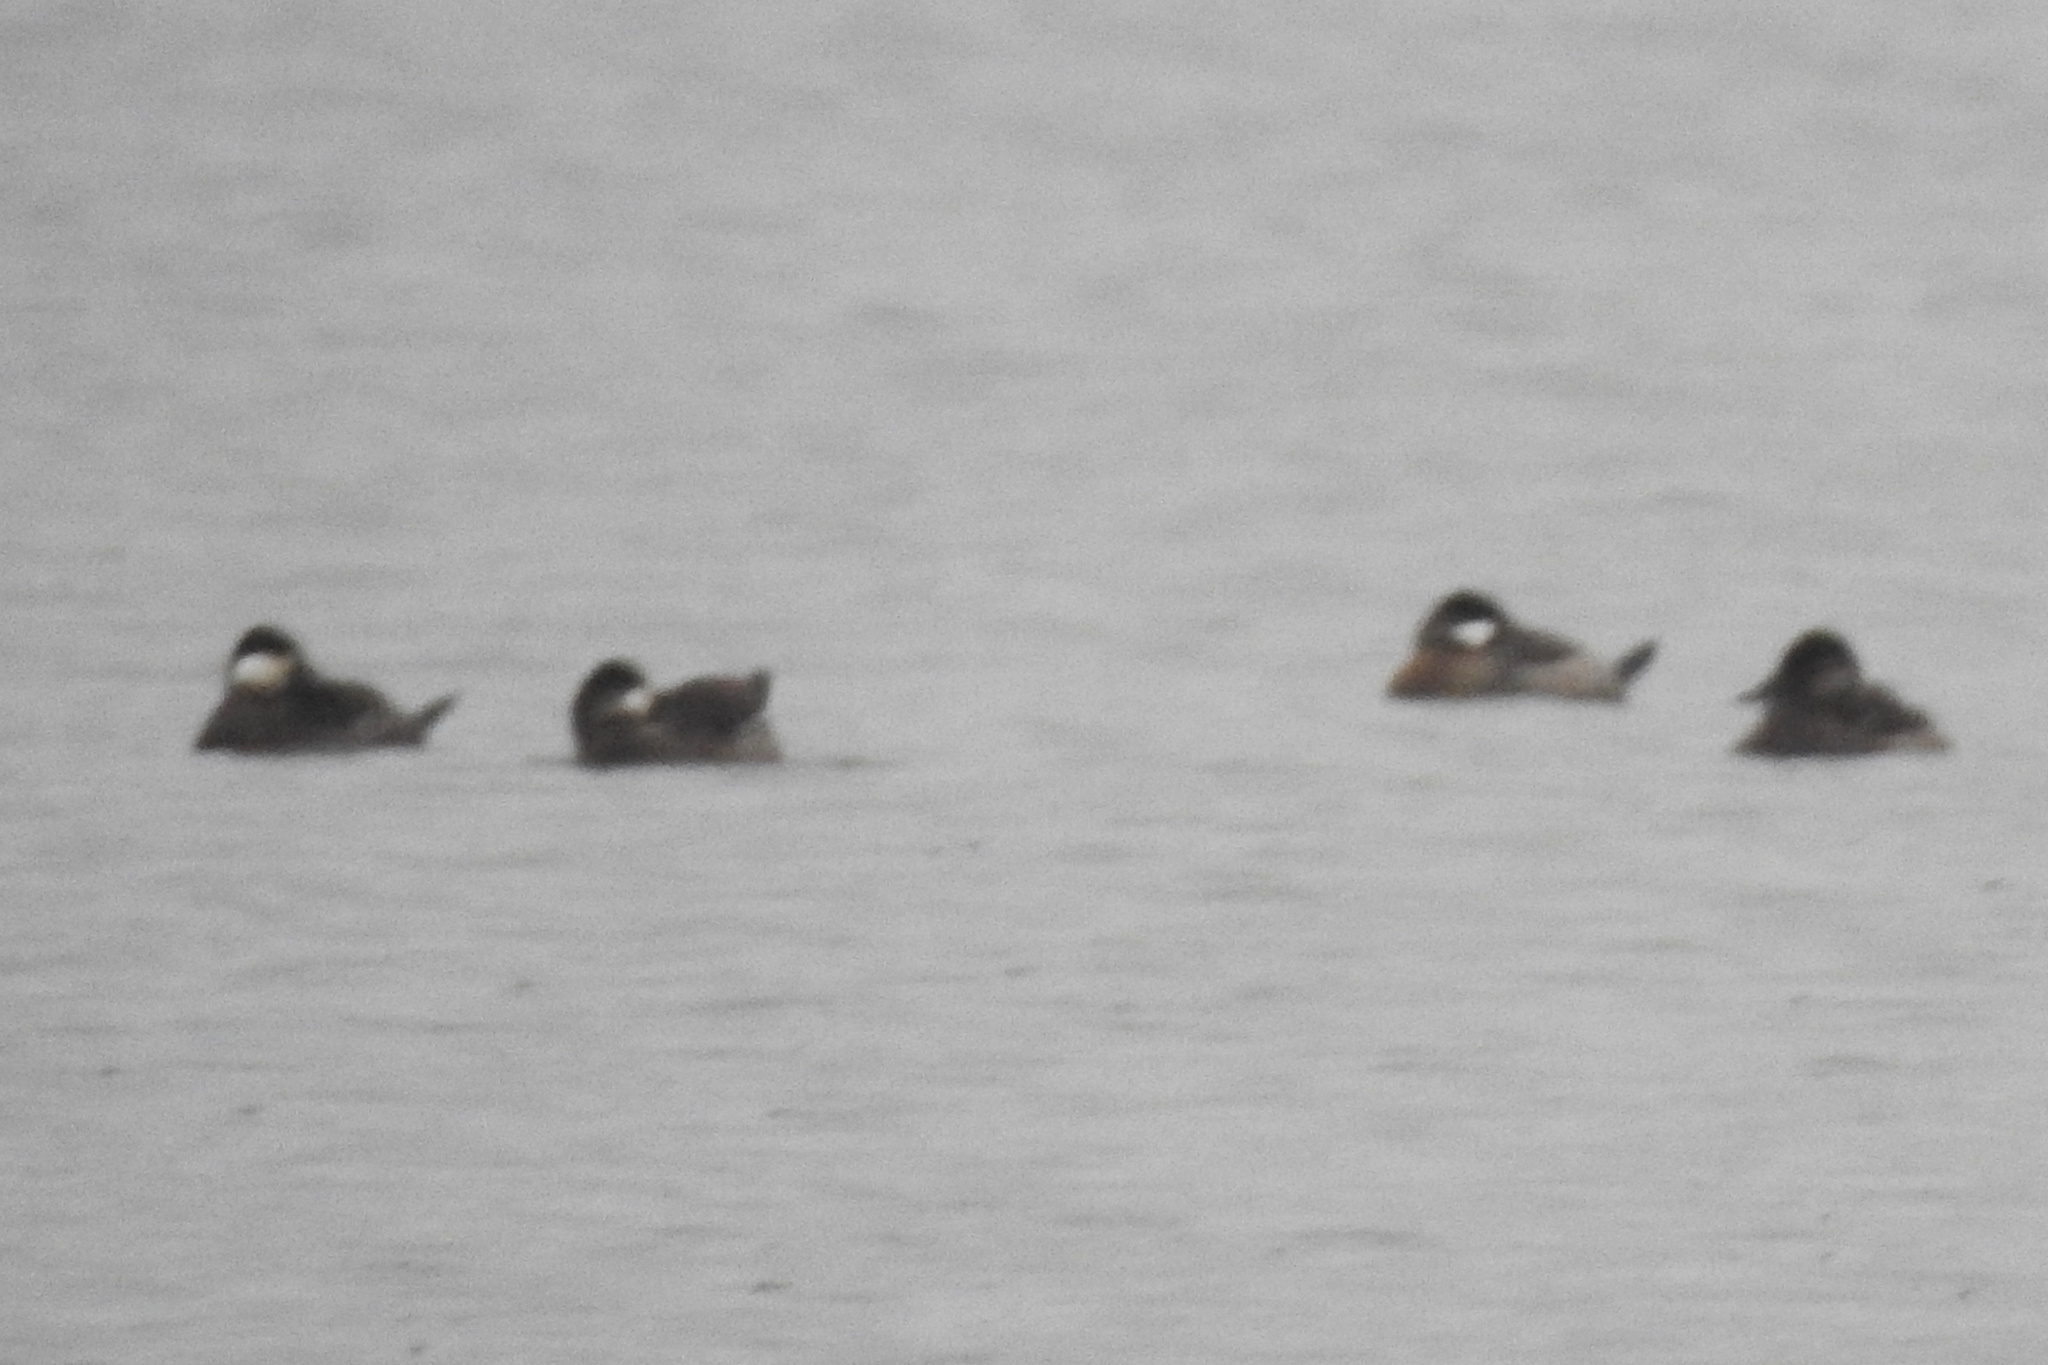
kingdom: Animalia
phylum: Chordata
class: Aves
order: Anseriformes
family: Anatidae
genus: Oxyura
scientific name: Oxyura jamaicensis
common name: Ruddy duck
